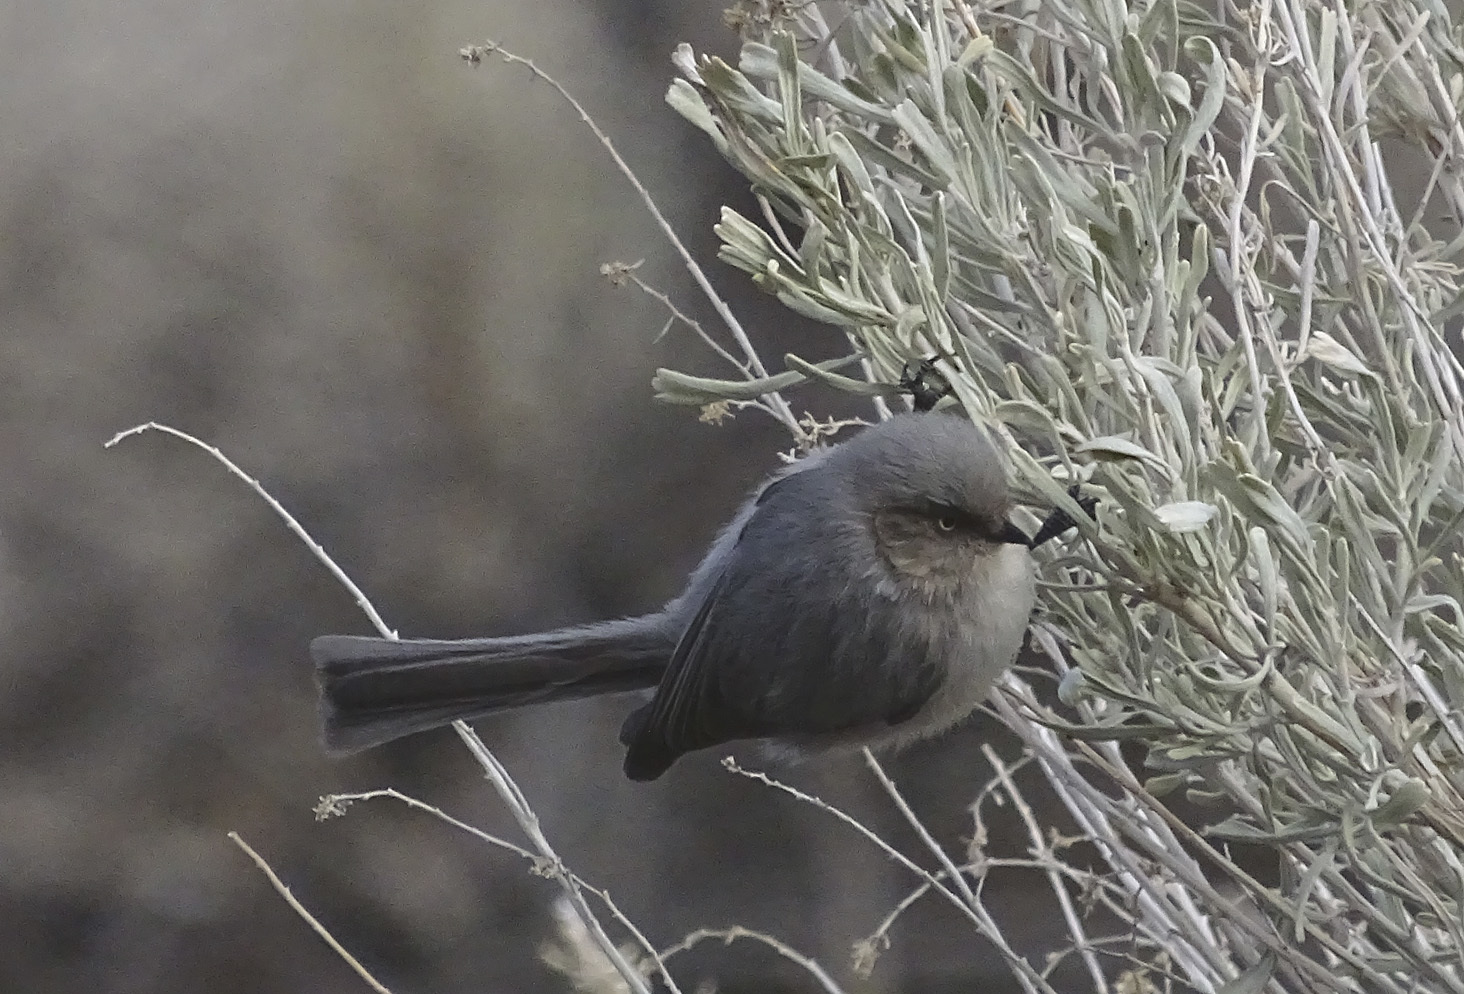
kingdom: Animalia
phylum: Chordata
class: Aves
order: Passeriformes
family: Aegithalidae
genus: Psaltriparus
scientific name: Psaltriparus minimus
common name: American bushtit
